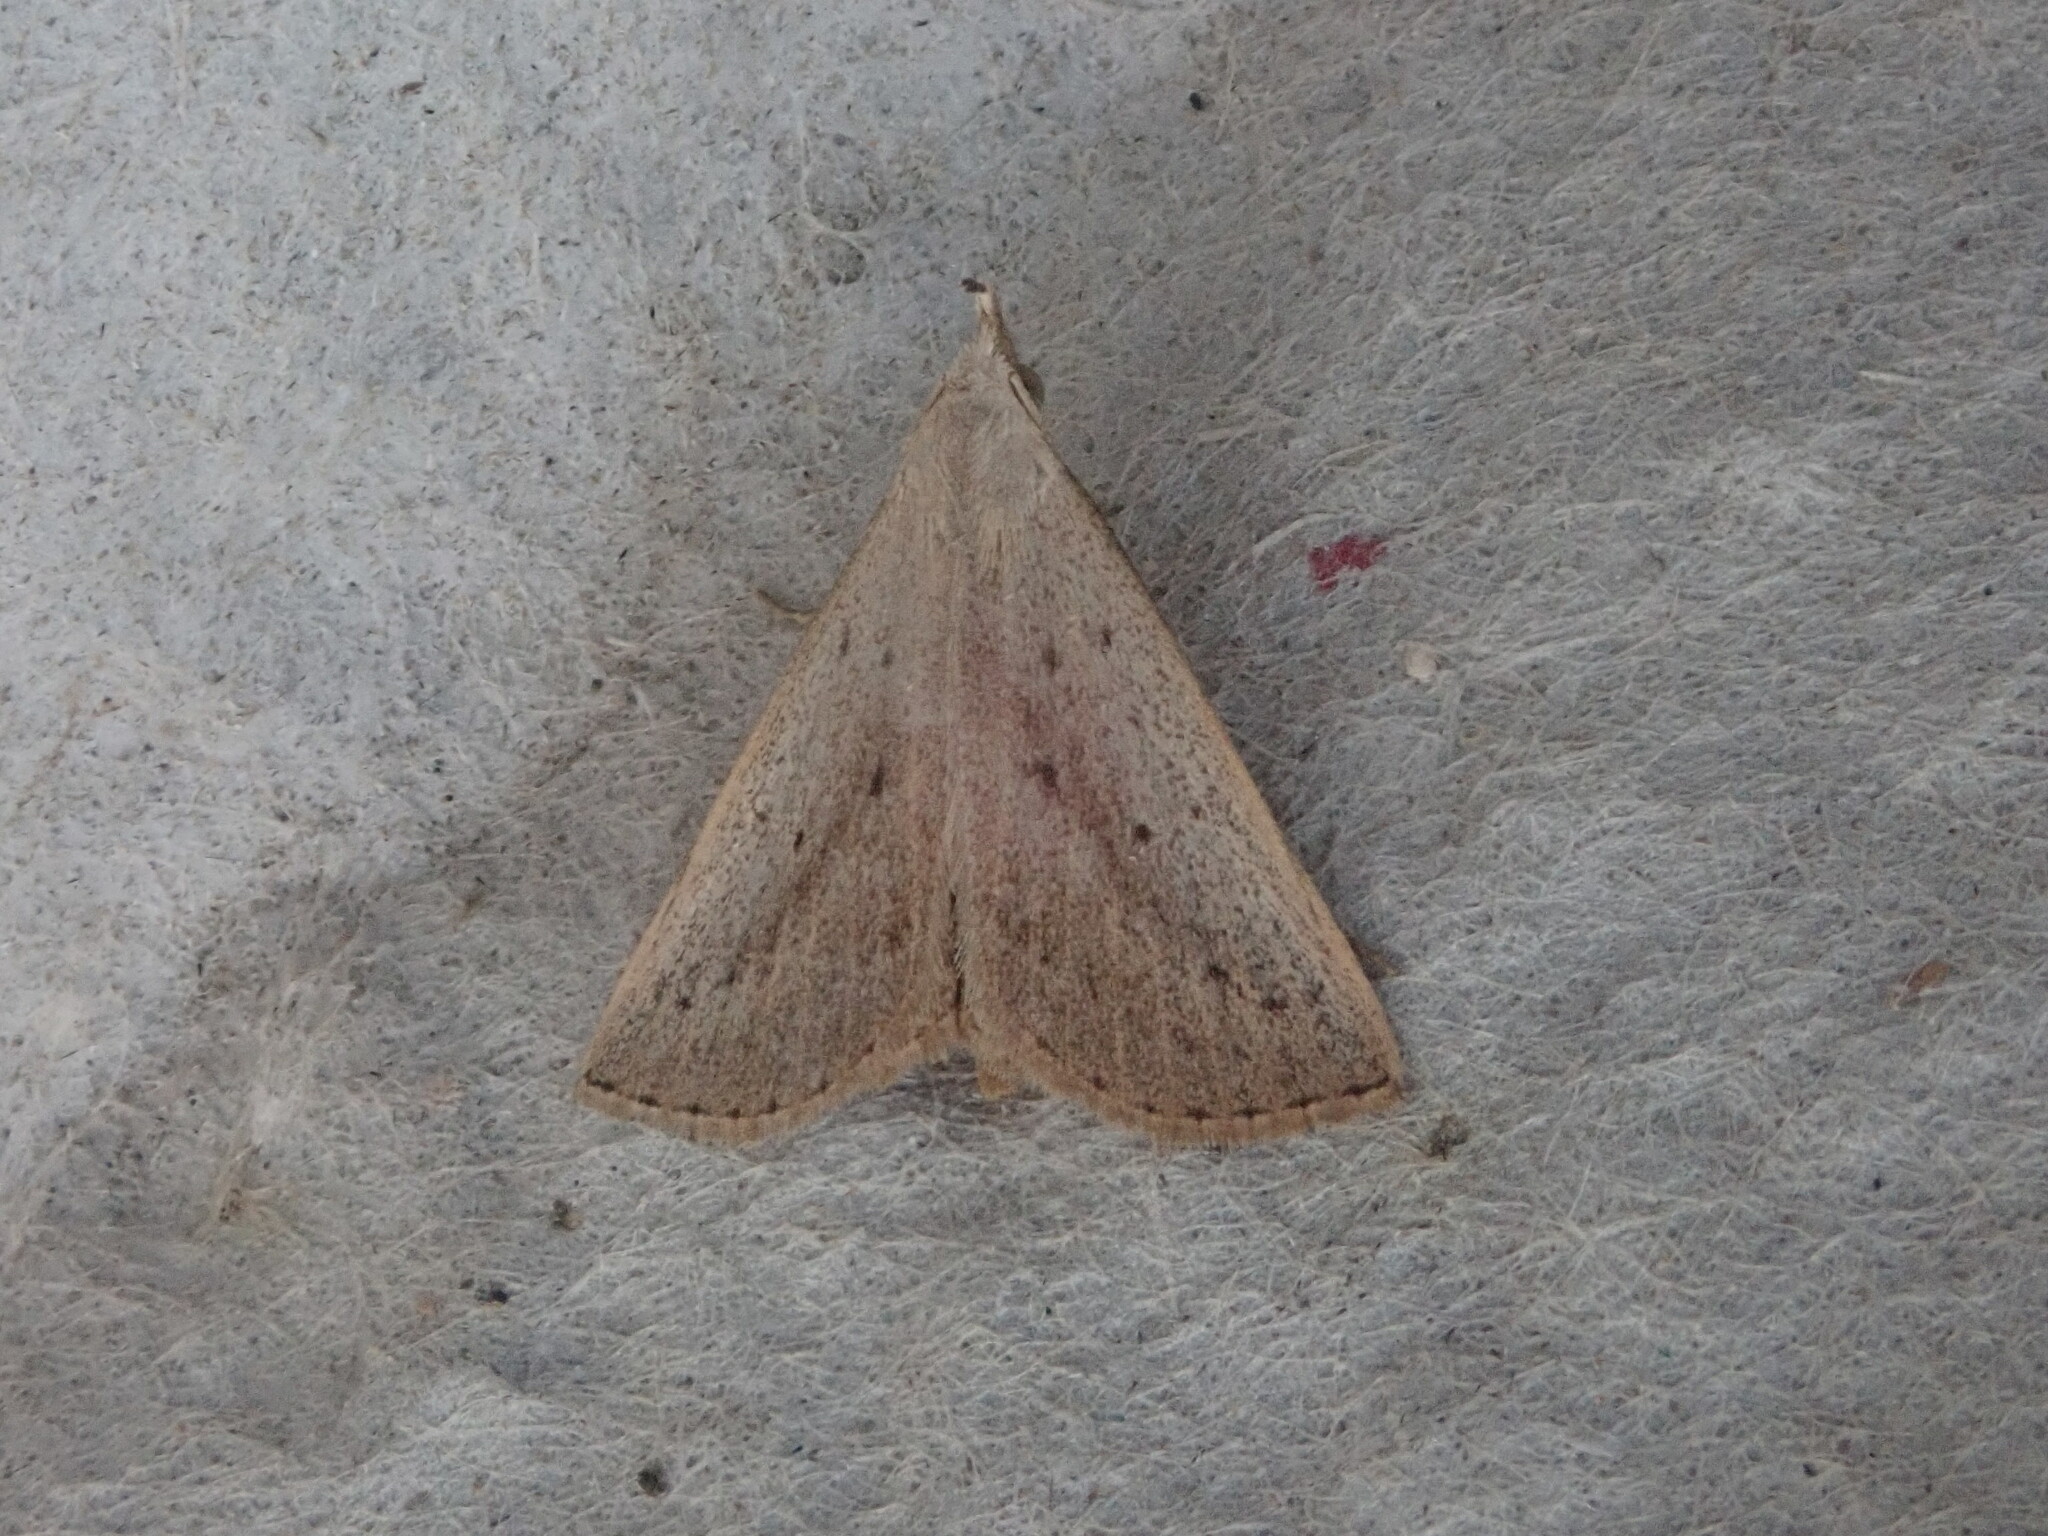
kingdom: Animalia
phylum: Arthropoda
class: Insecta
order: Lepidoptera
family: Erebidae
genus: Macrochilo
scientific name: Macrochilo louisiana
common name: Louisiana macrochilo
